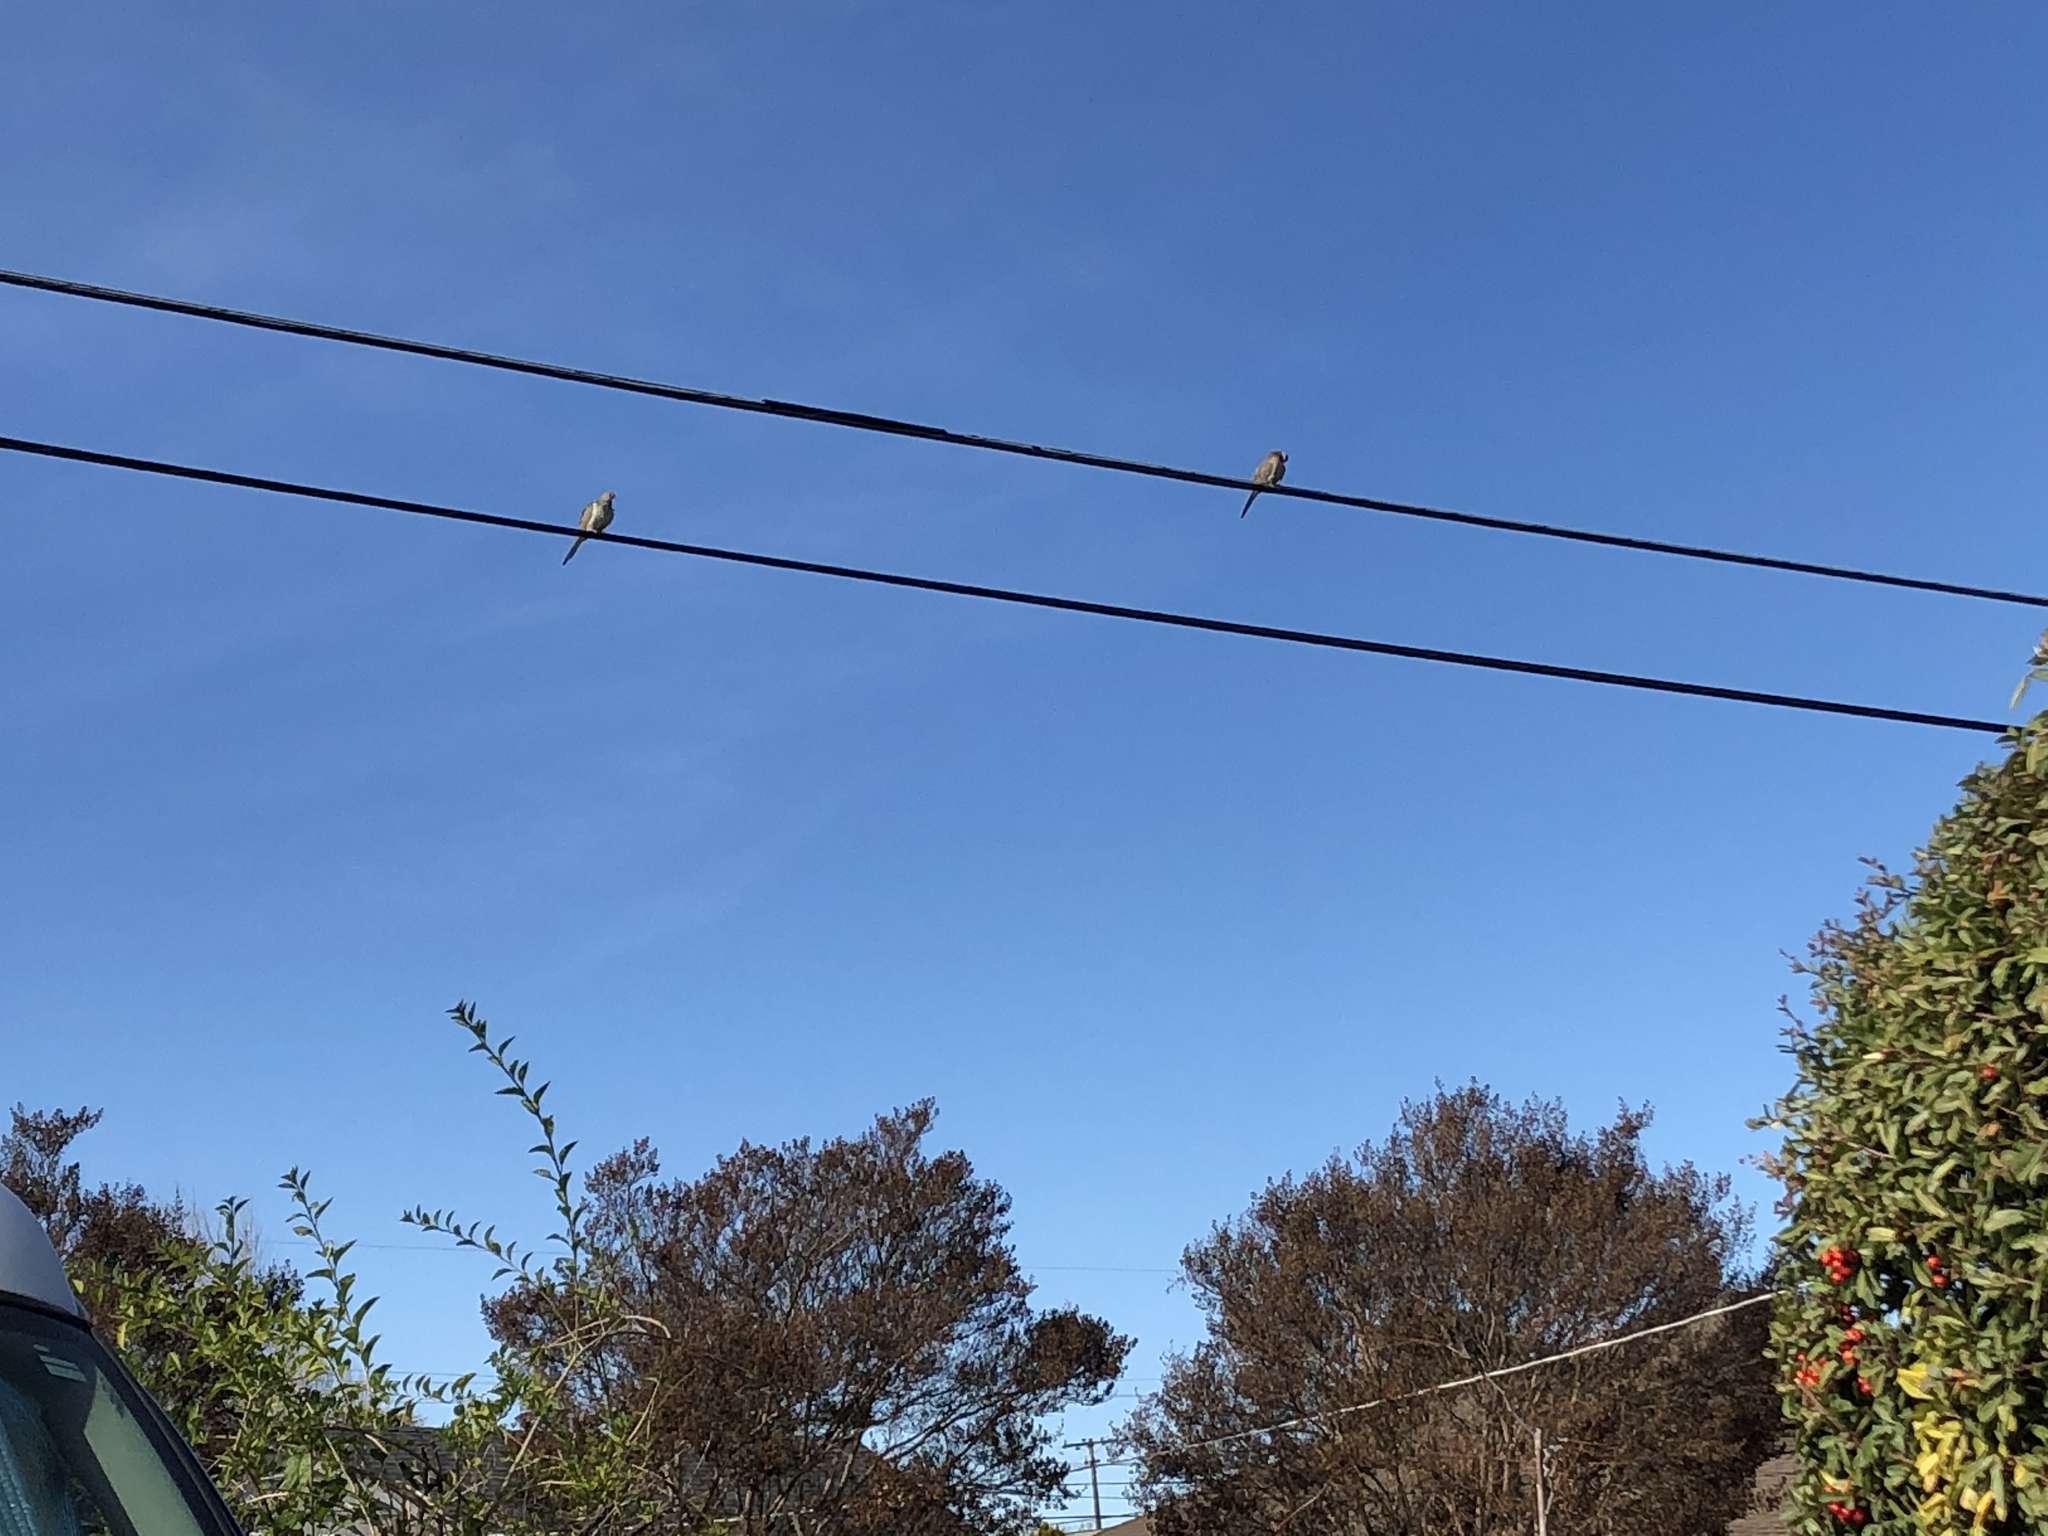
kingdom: Animalia
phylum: Chordata
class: Aves
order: Columbiformes
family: Columbidae
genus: Zenaida
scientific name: Zenaida macroura
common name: Mourning dove
